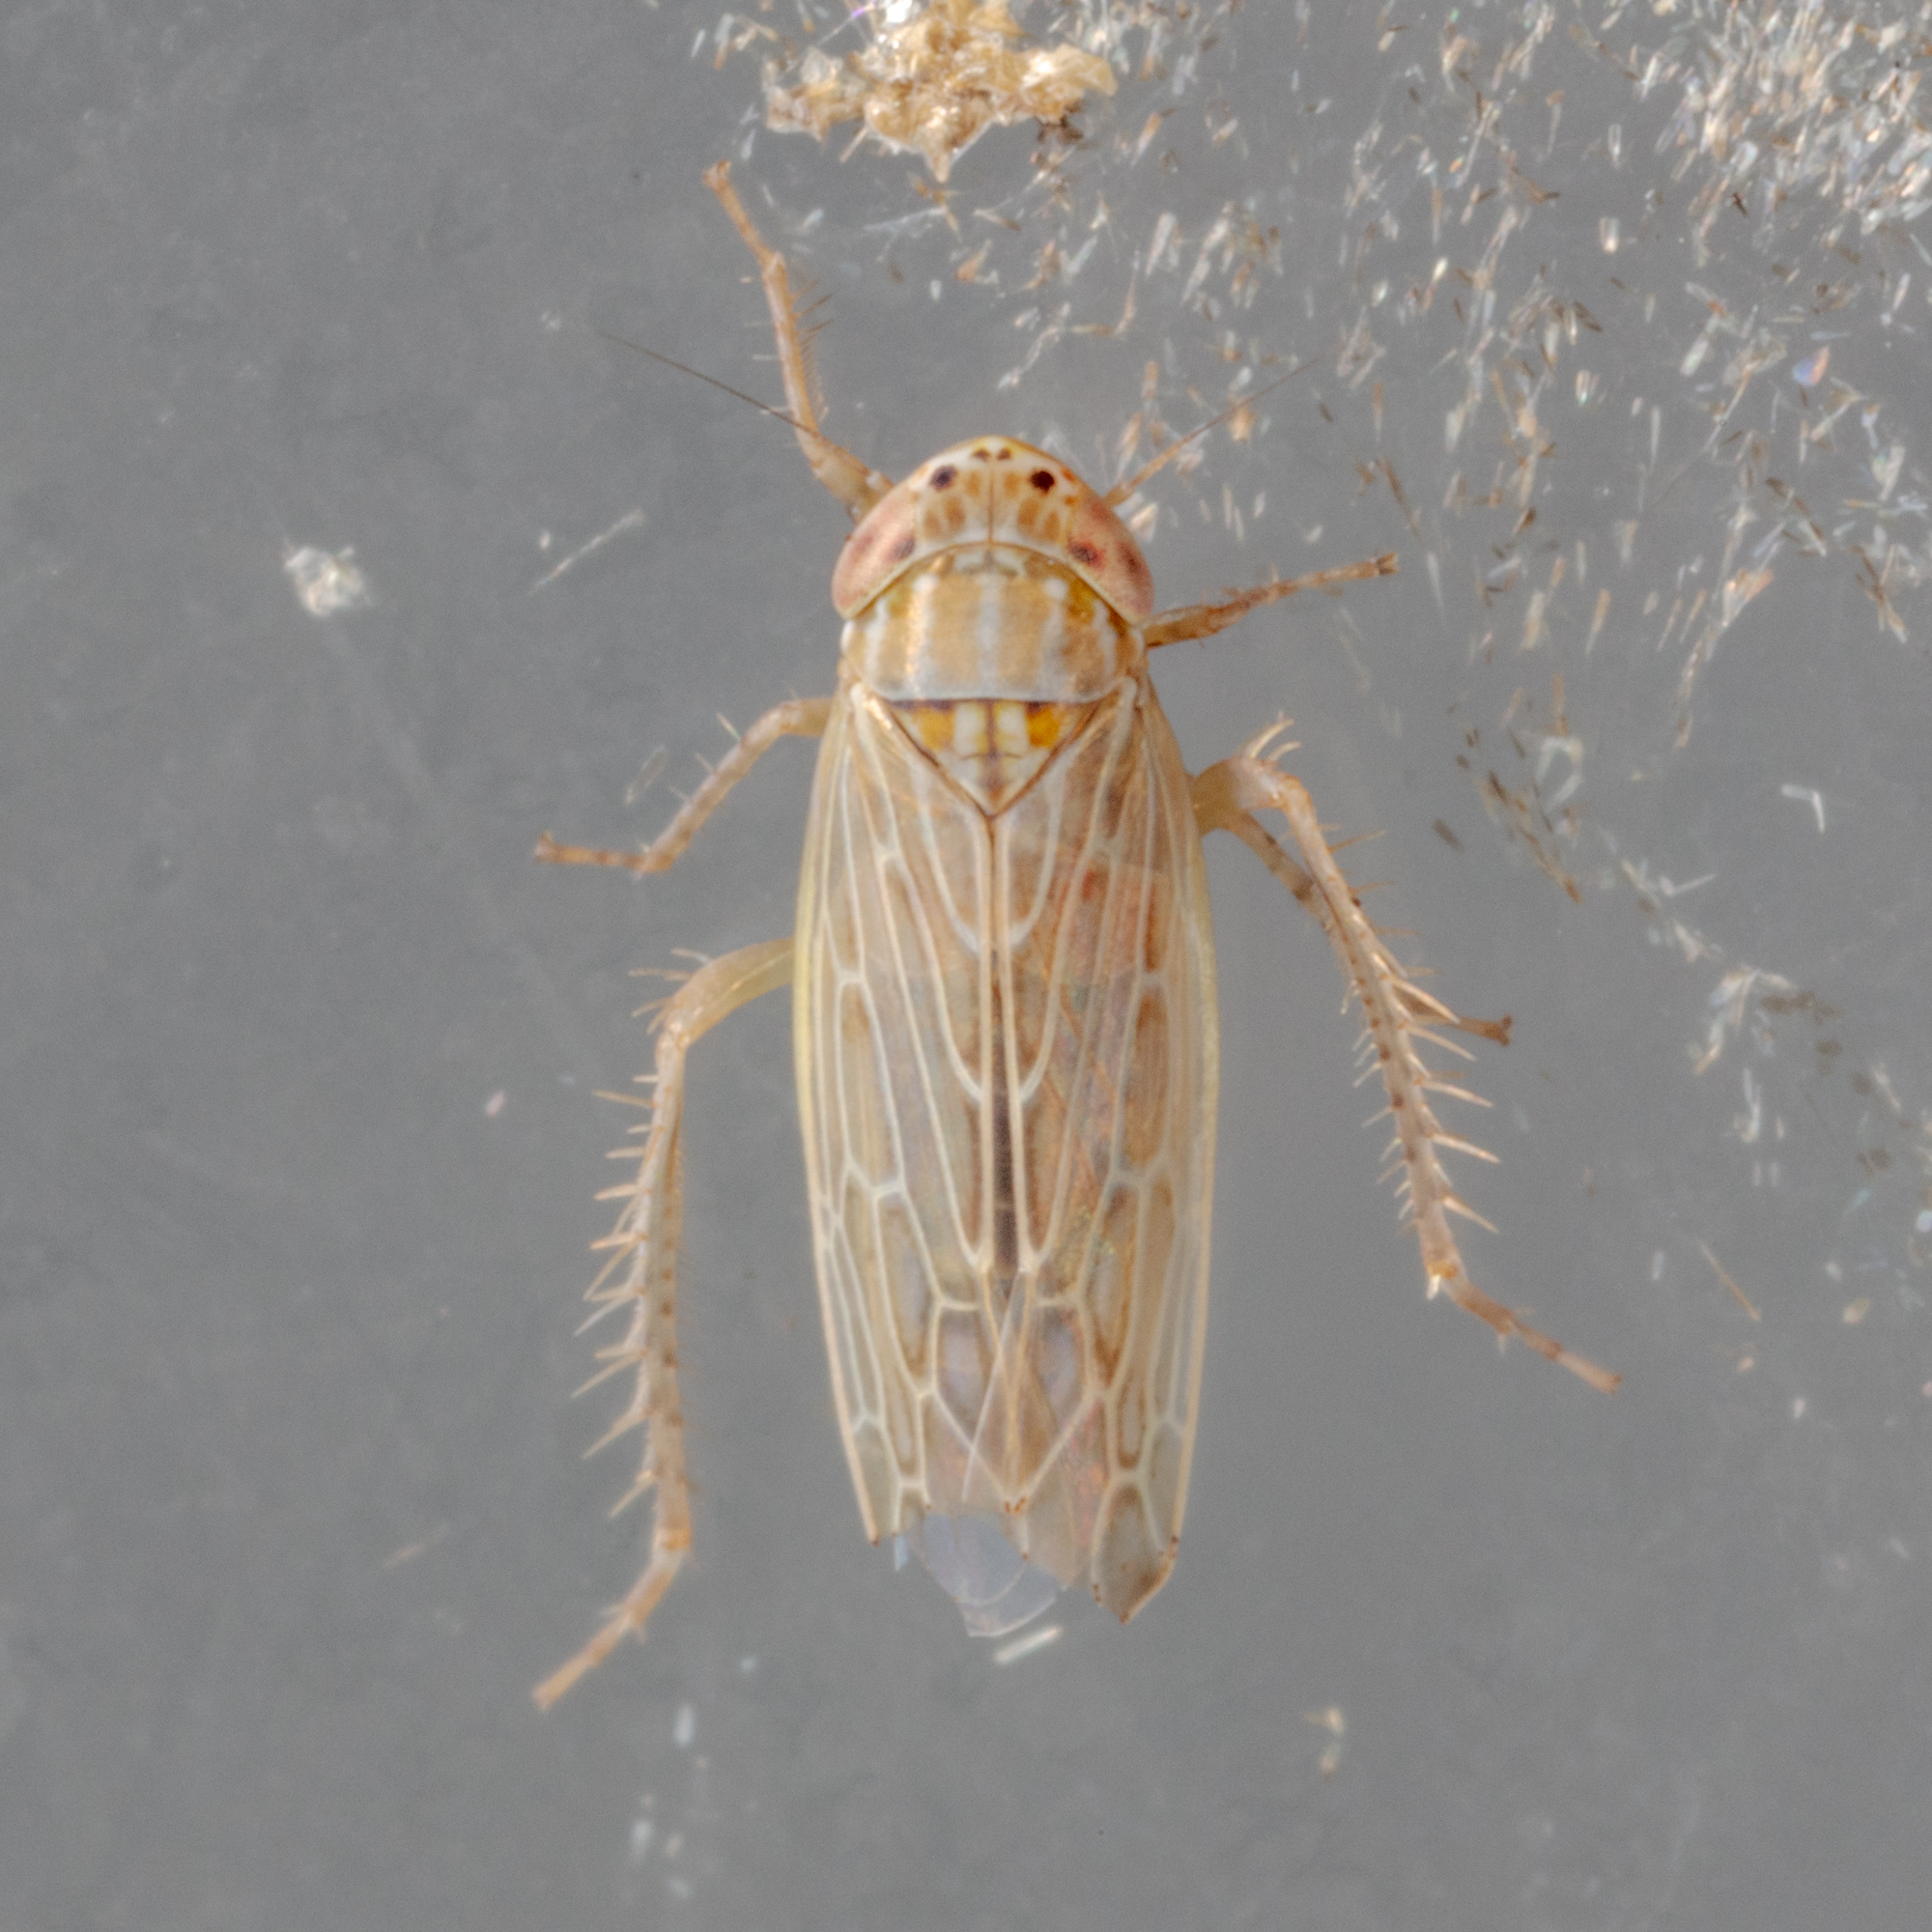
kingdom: Animalia
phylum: Arthropoda
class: Insecta
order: Hemiptera
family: Cicadellidae
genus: Graminella
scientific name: Graminella sonora
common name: Lesser lawn leafhopper
